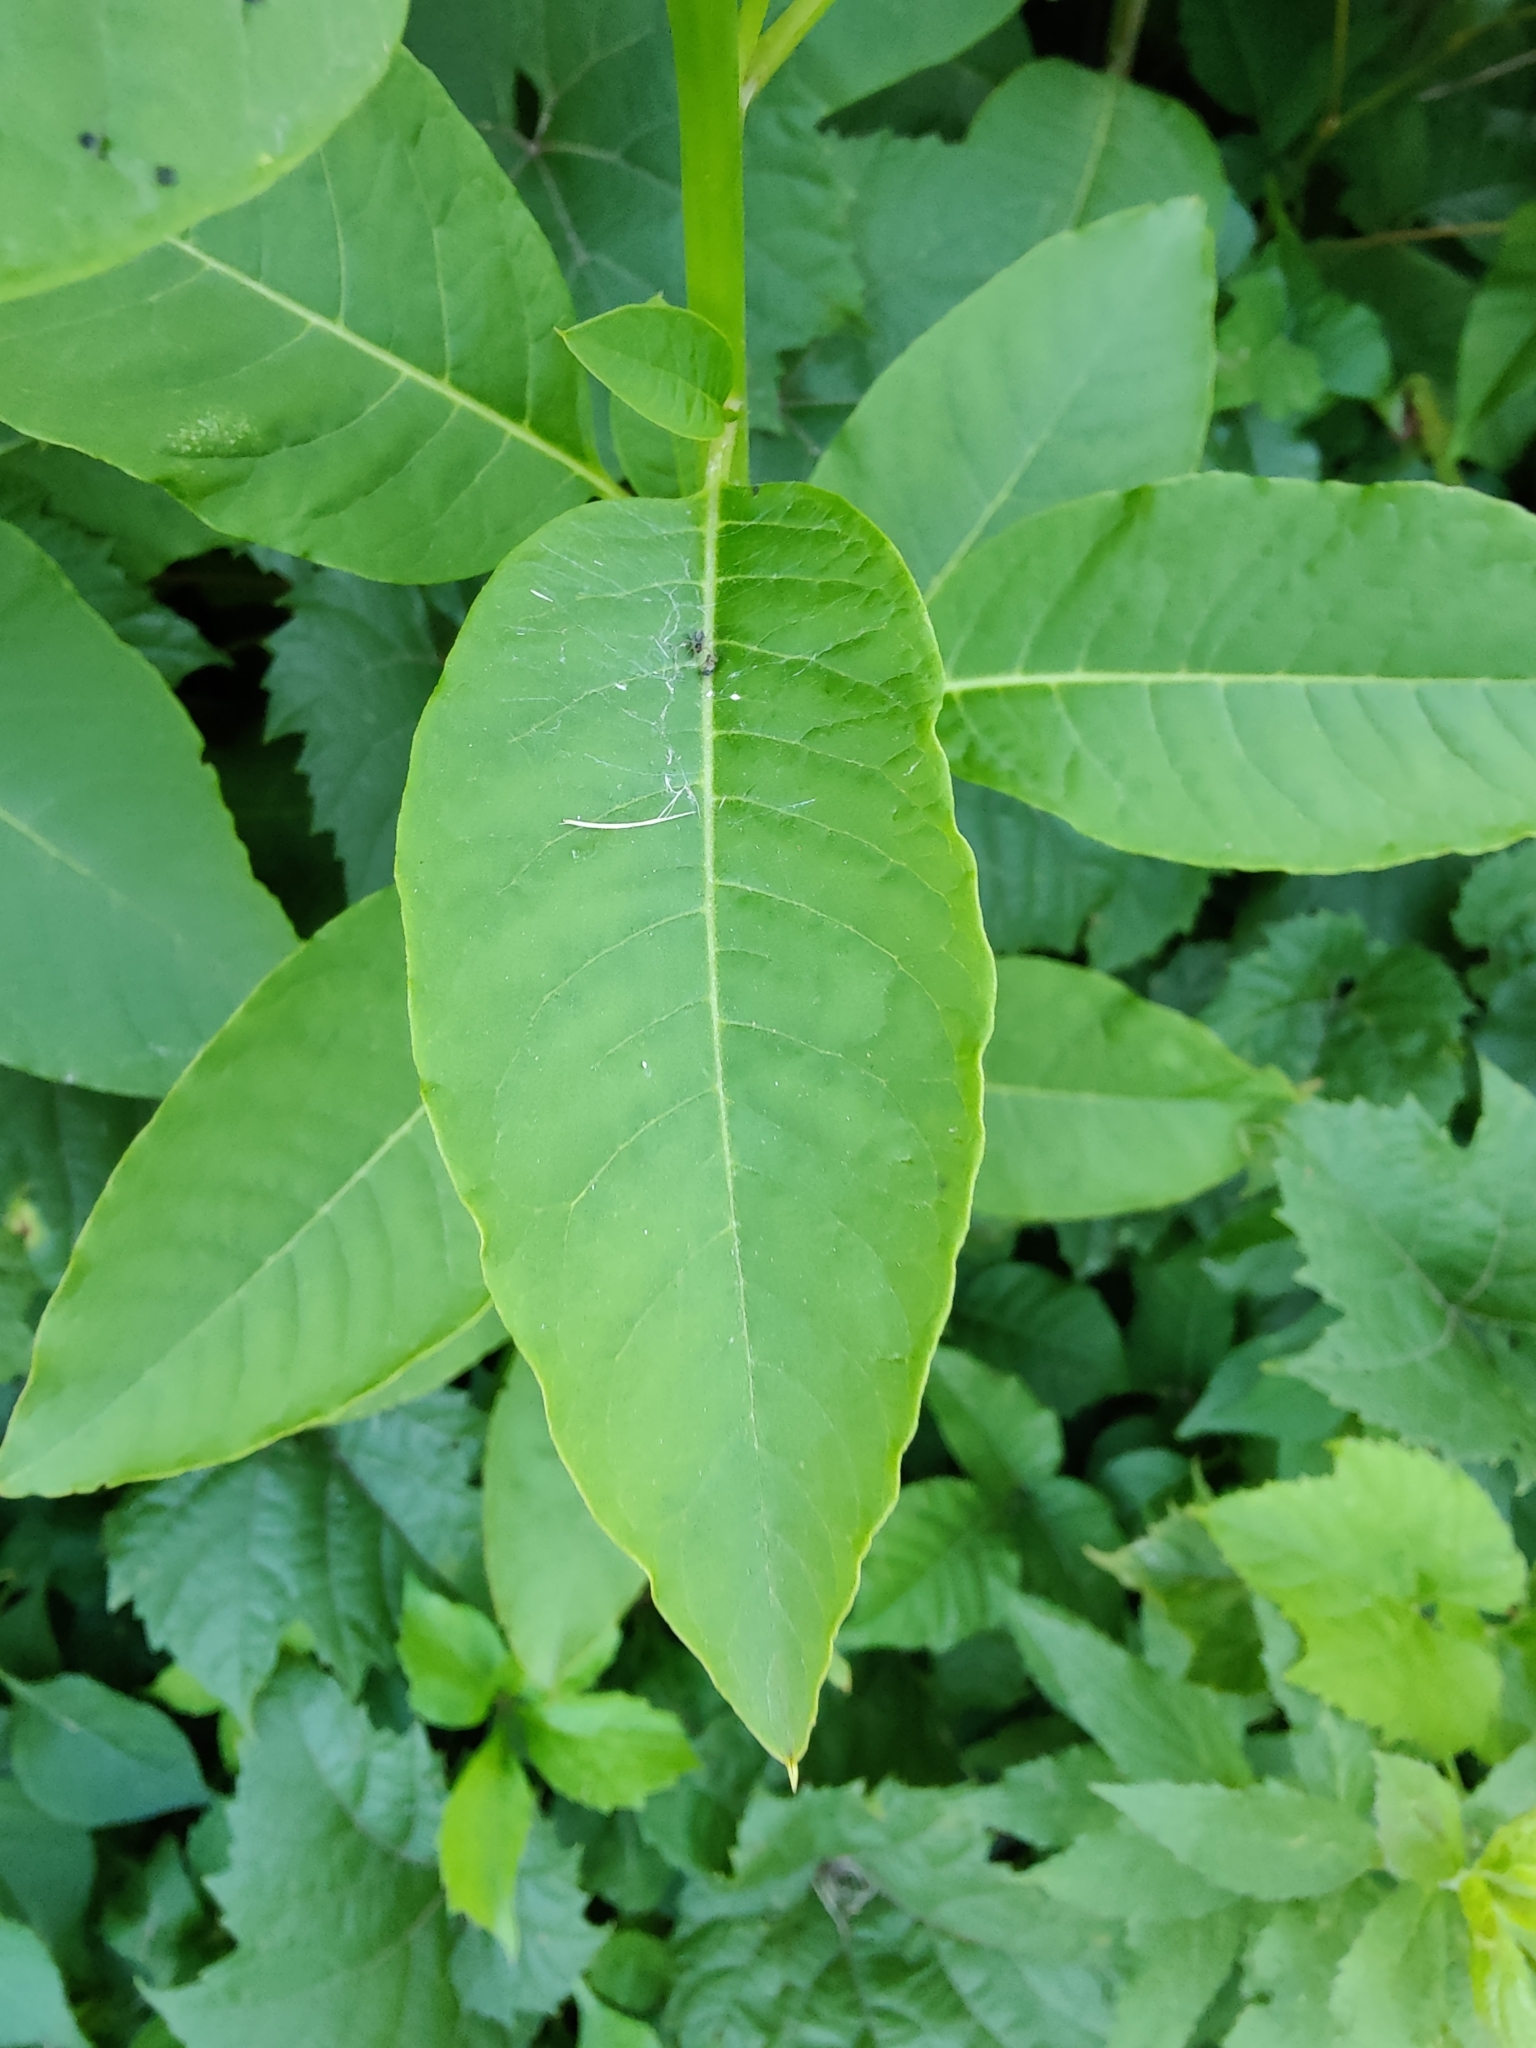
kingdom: Plantae
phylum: Tracheophyta
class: Magnoliopsida
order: Caryophyllales
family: Phytolaccaceae
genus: Phytolacca
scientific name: Phytolacca americana
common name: American pokeweed
